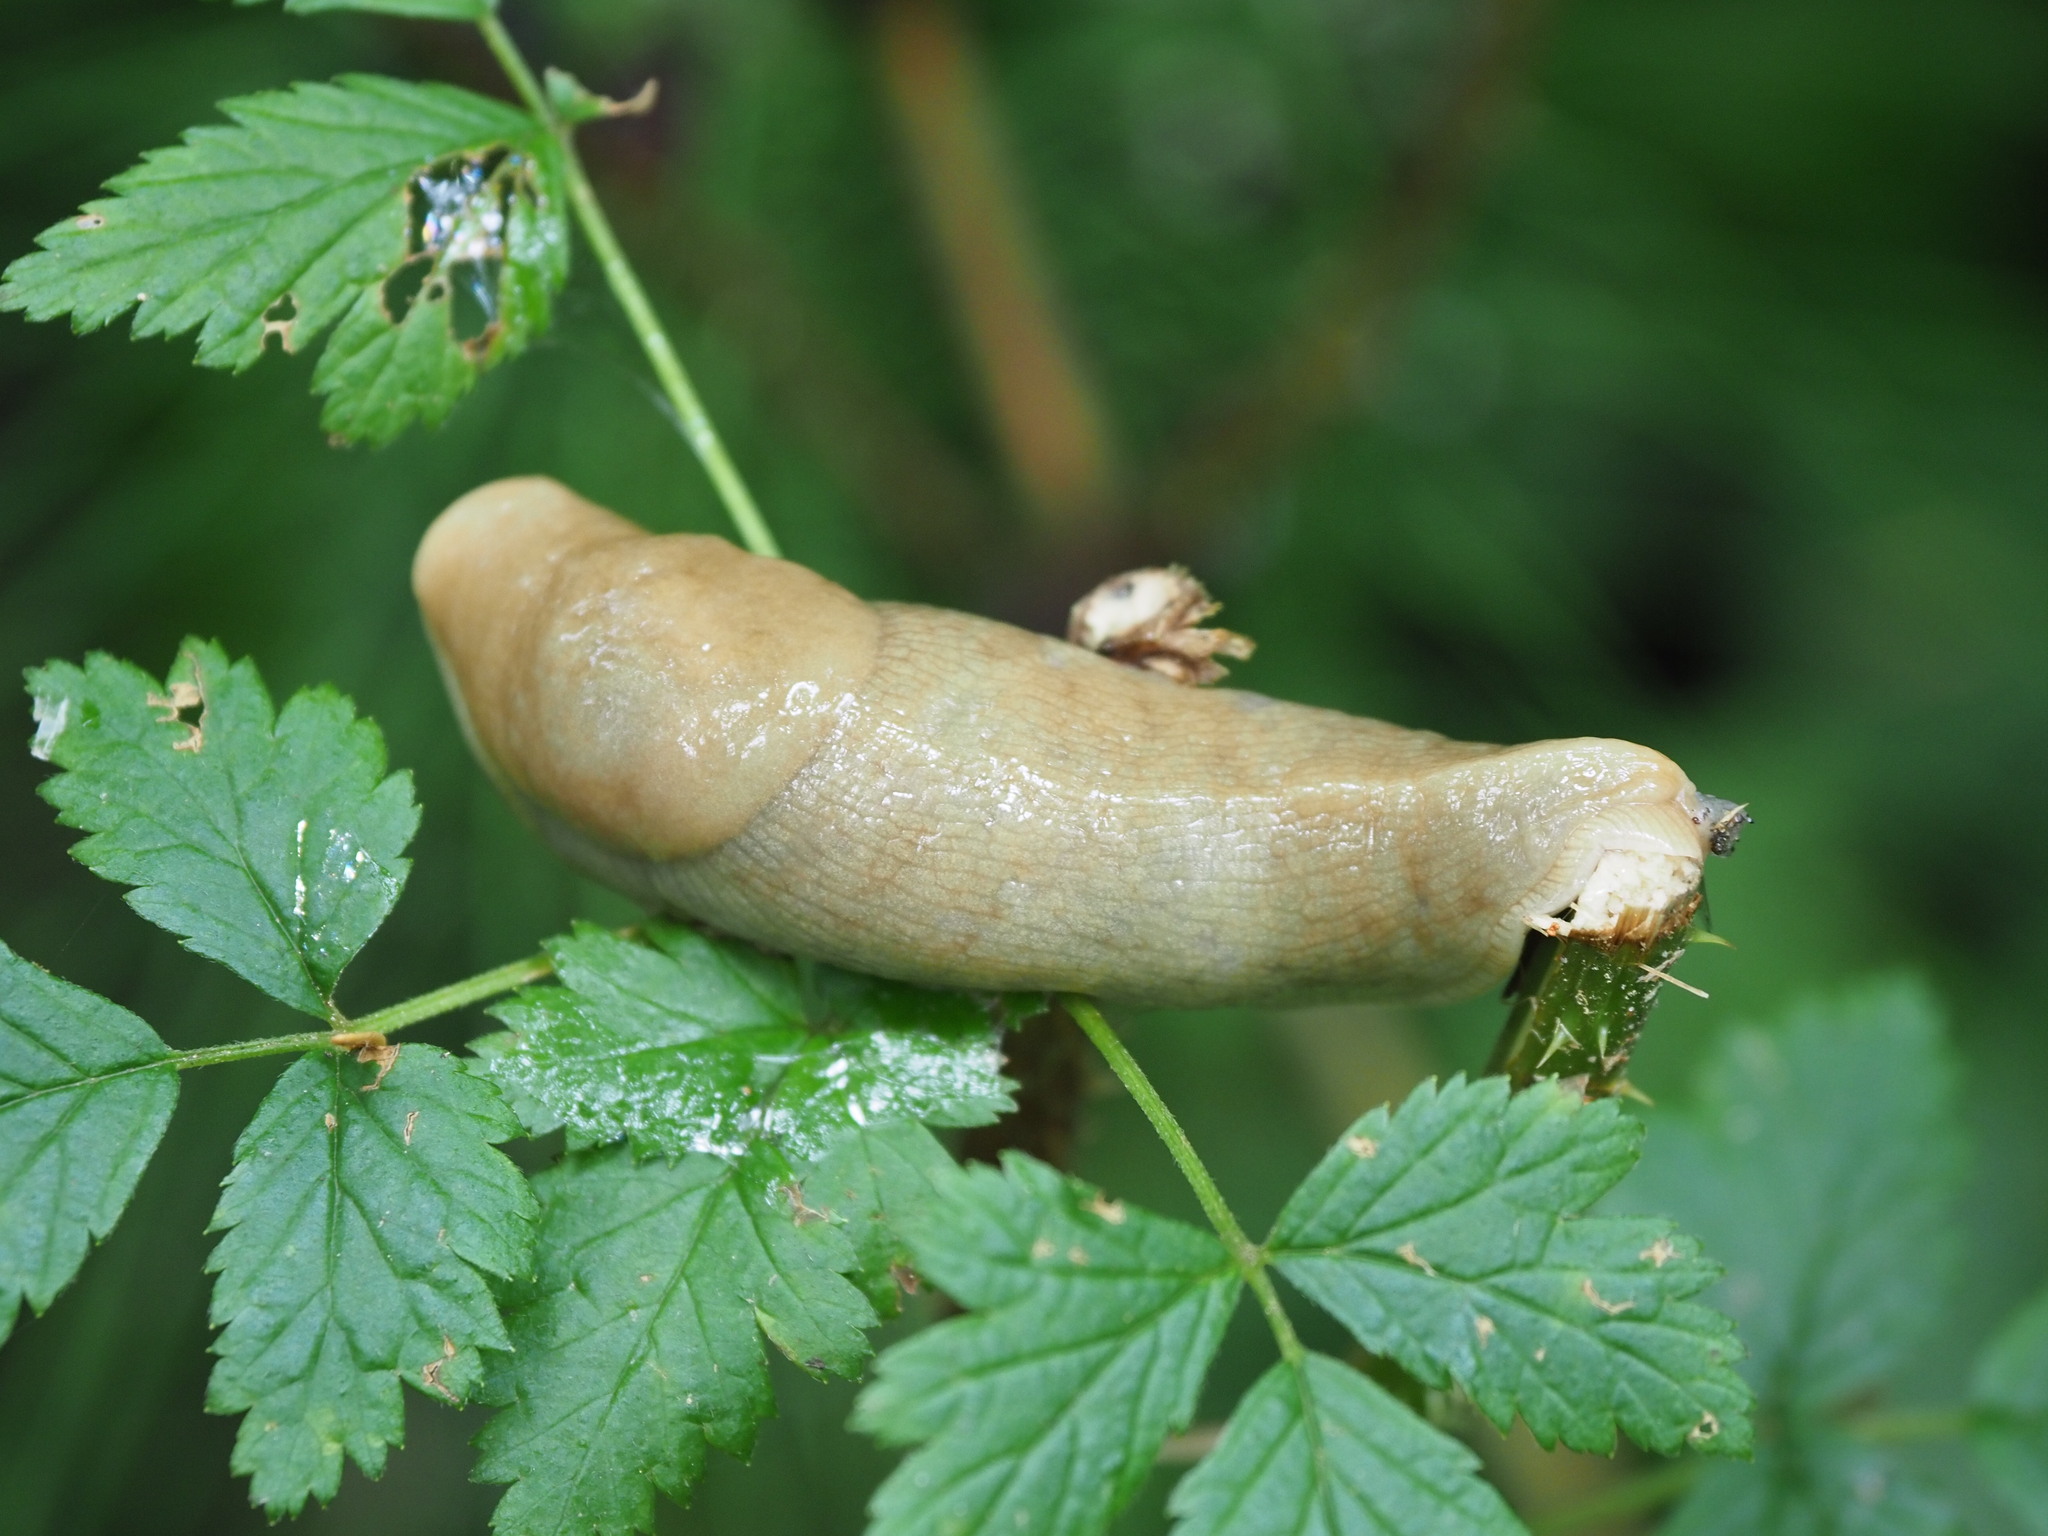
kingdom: Animalia
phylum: Mollusca
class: Gastropoda
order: Stylommatophora
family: Ariolimacidae
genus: Ariolimax
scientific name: Ariolimax columbianus
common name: Pacific banana slug
